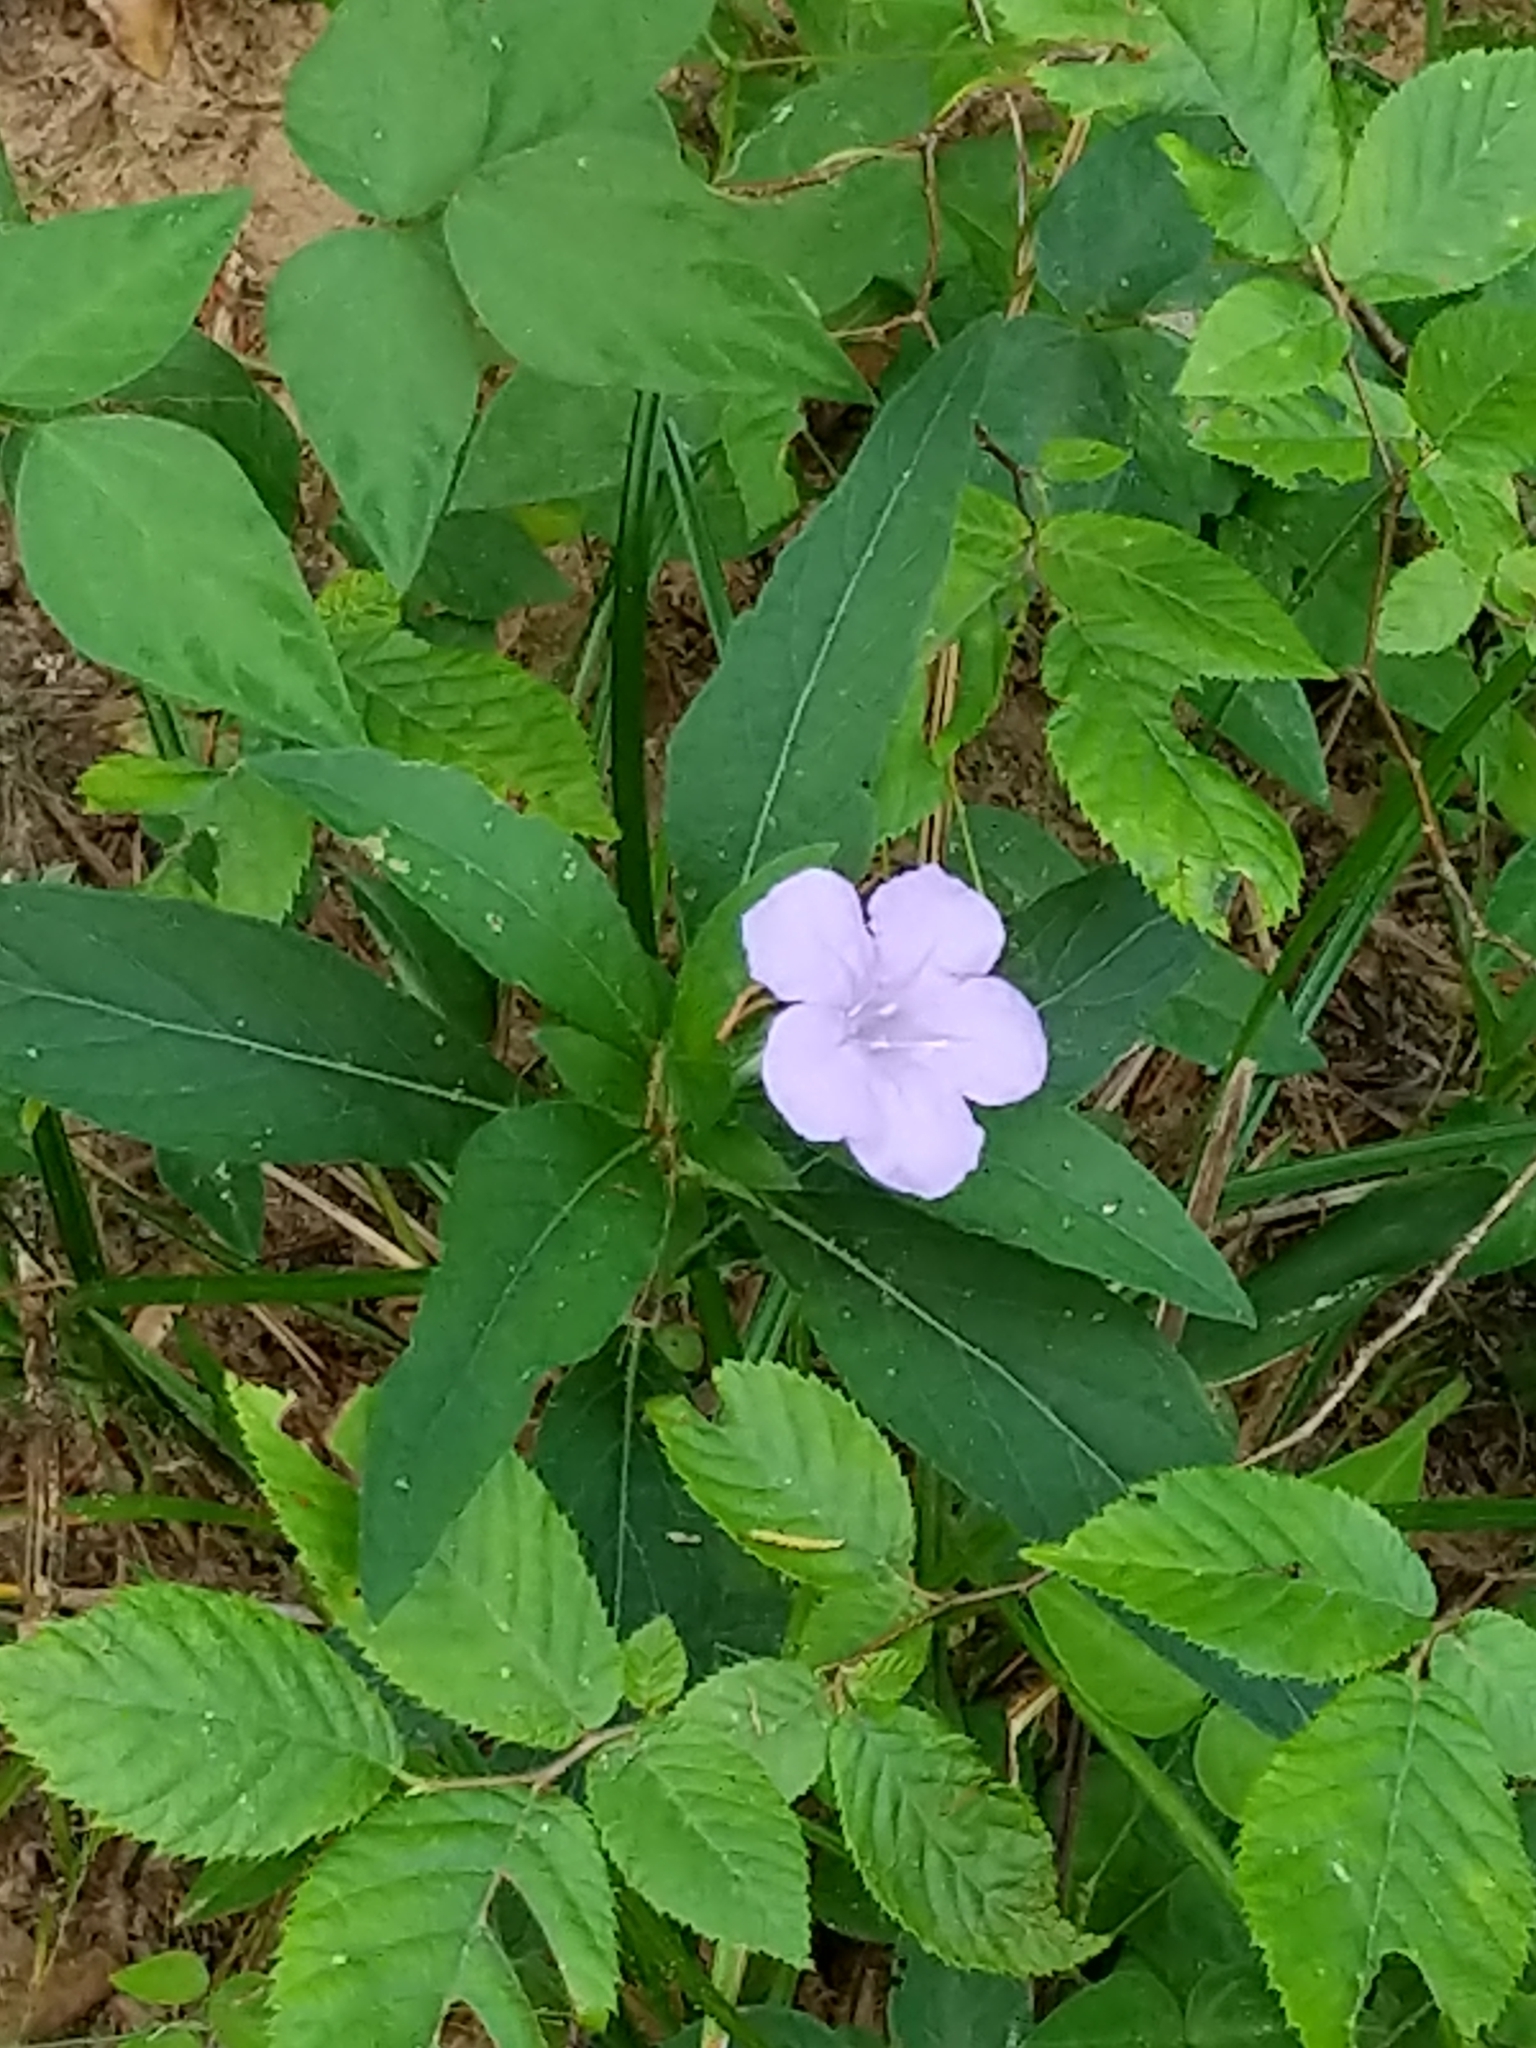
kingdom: Plantae
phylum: Tracheophyta
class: Magnoliopsida
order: Lamiales
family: Acanthaceae
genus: Ruellia
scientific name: Ruellia caroliniensis
